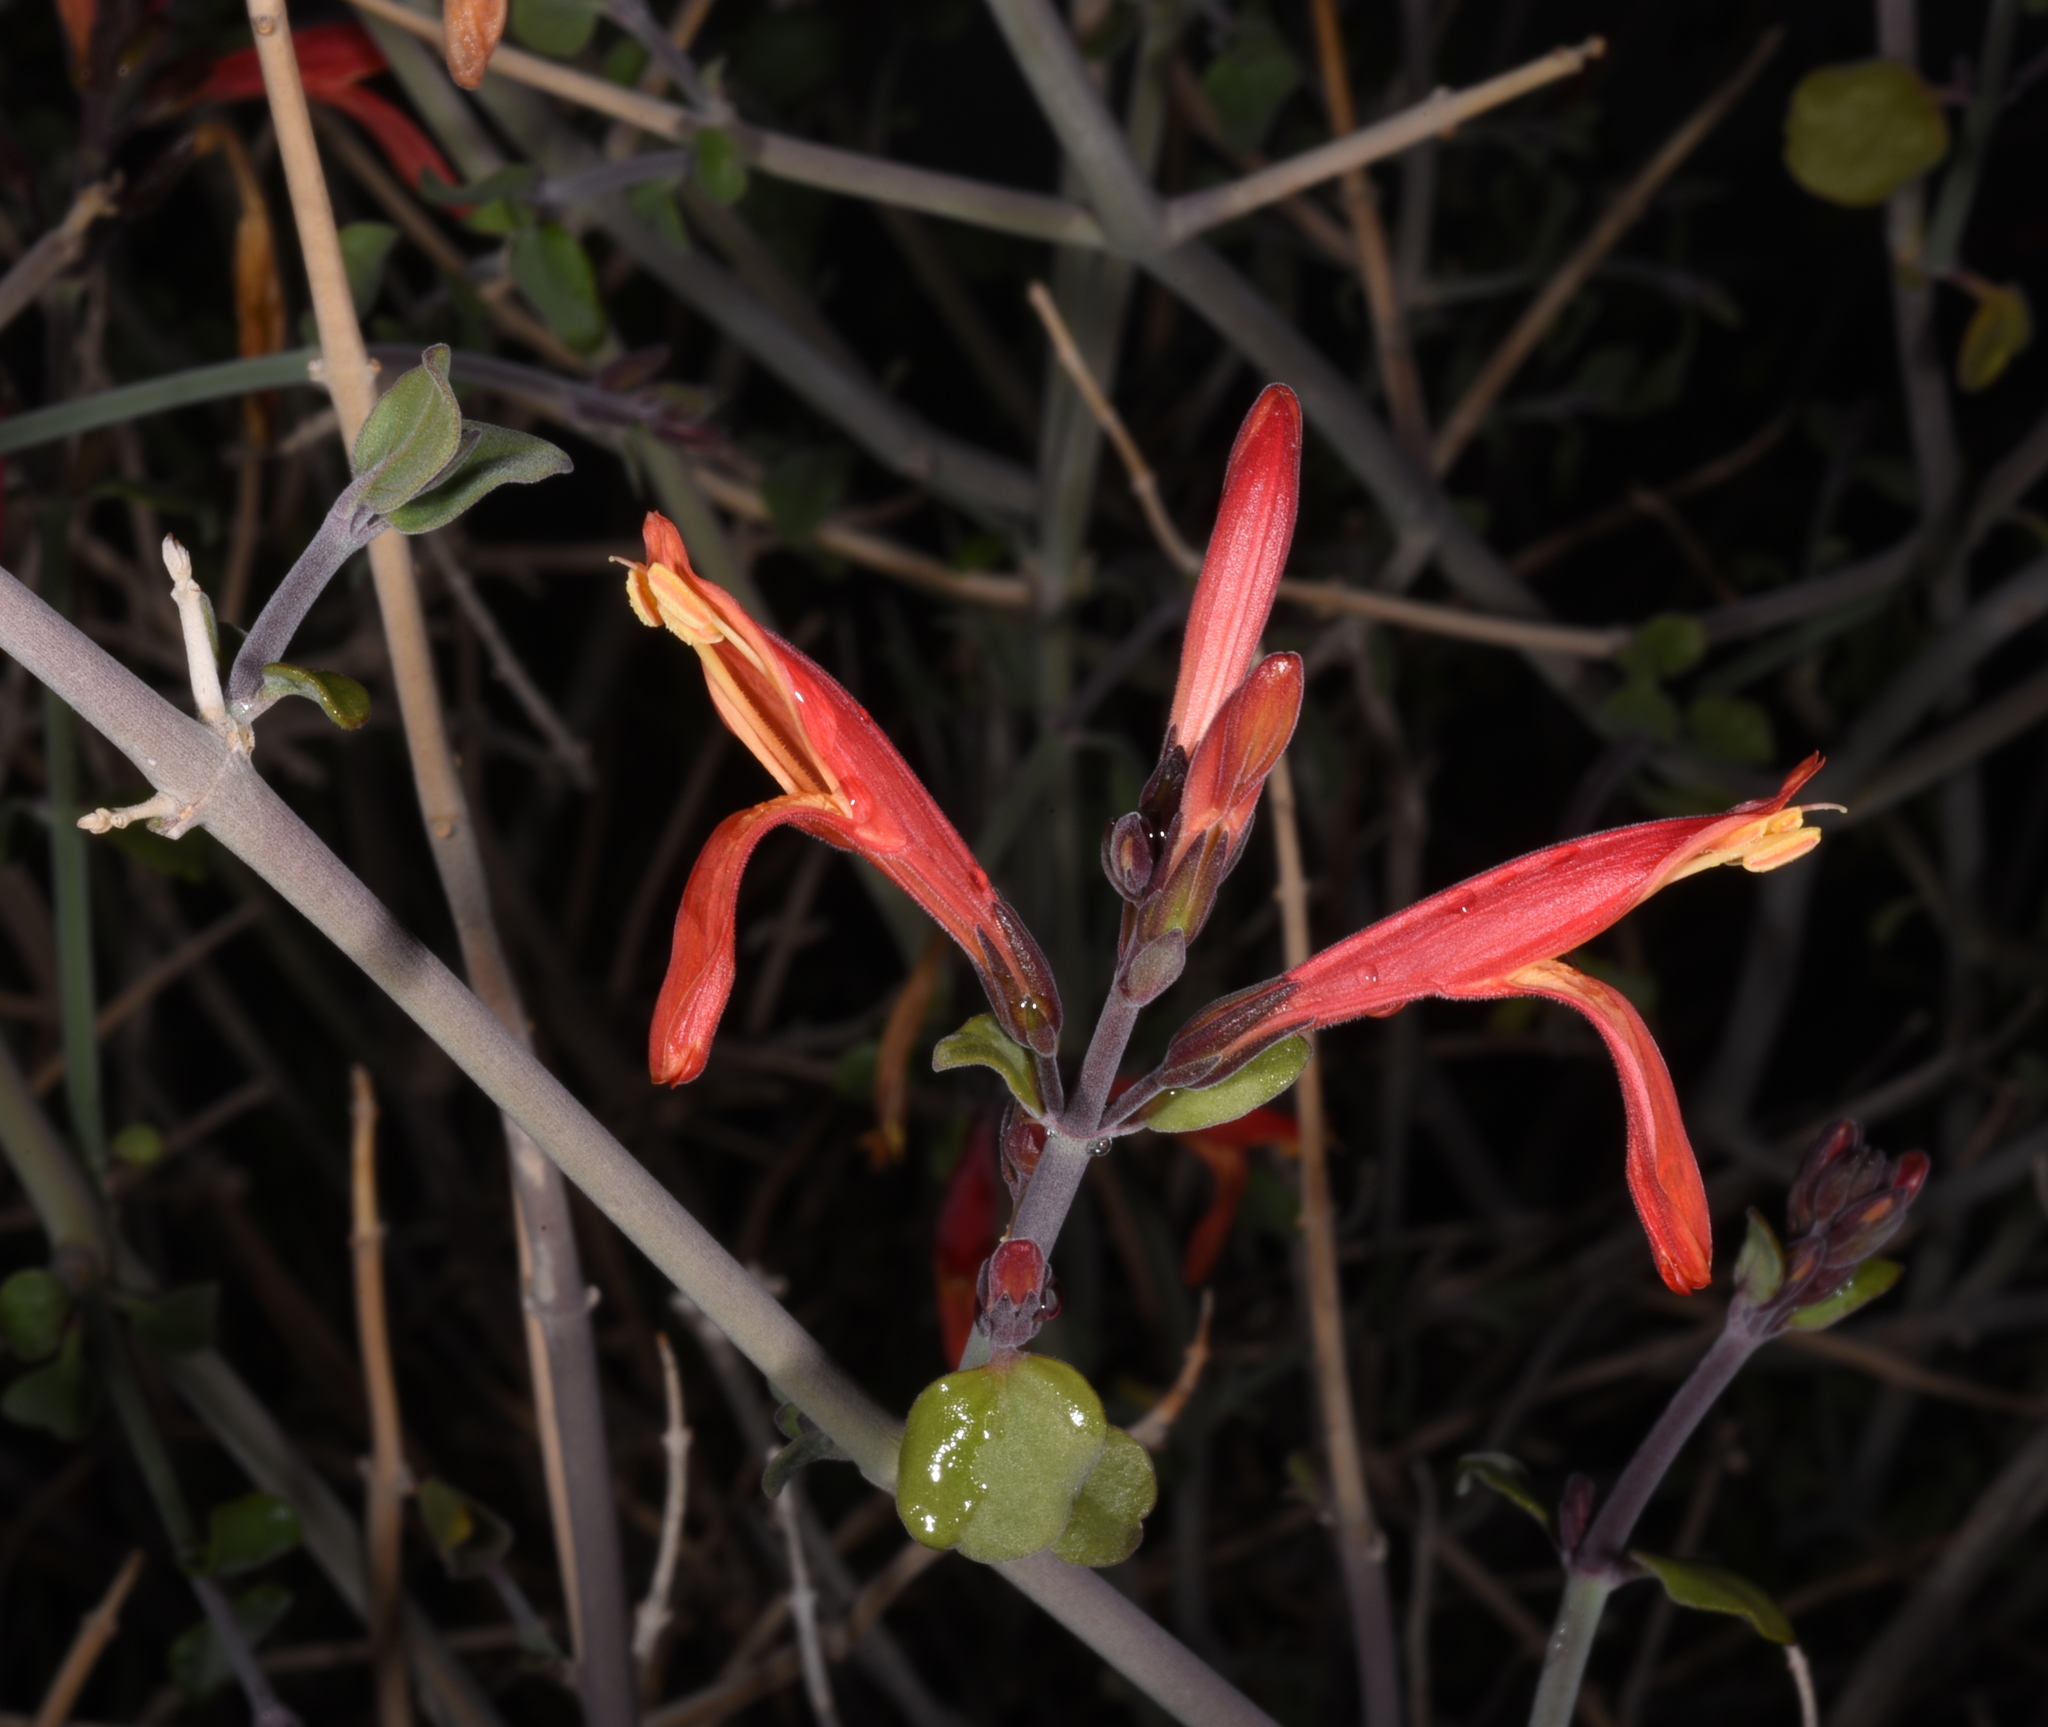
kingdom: Plantae
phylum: Tracheophyta
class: Magnoliopsida
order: Lamiales
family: Acanthaceae
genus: Justicia
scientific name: Justicia californica
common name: Chuparosa-honeysuckle
